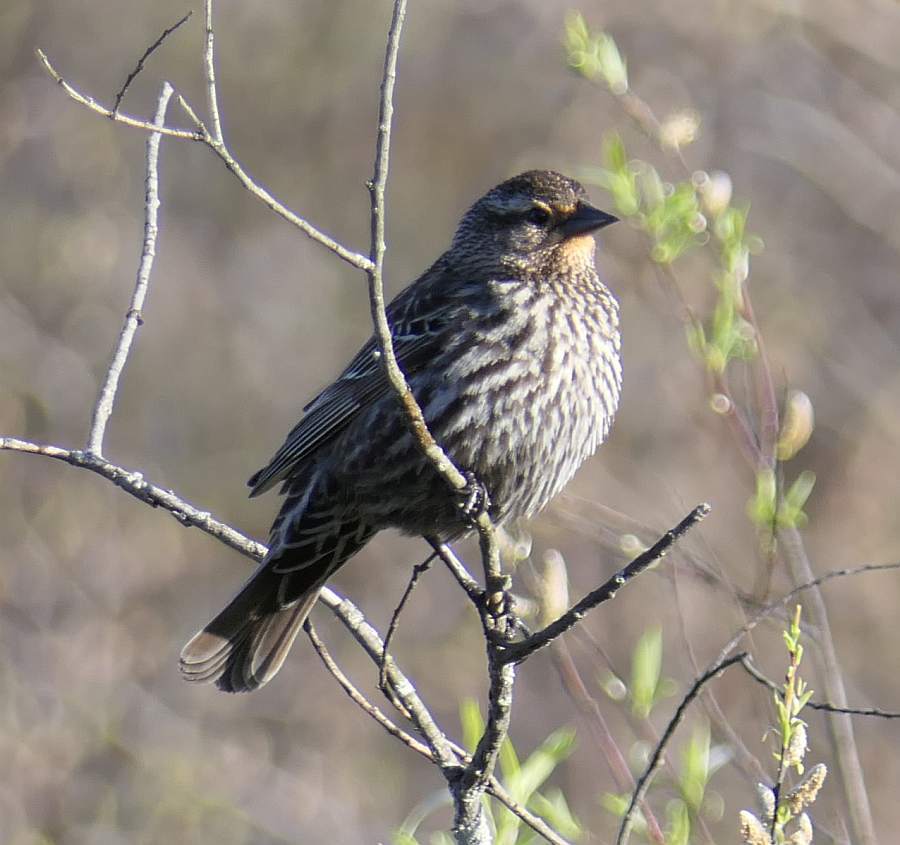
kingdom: Animalia
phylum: Chordata
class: Aves
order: Passeriformes
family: Icteridae
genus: Agelaius
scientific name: Agelaius phoeniceus
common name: Red-winged blackbird
